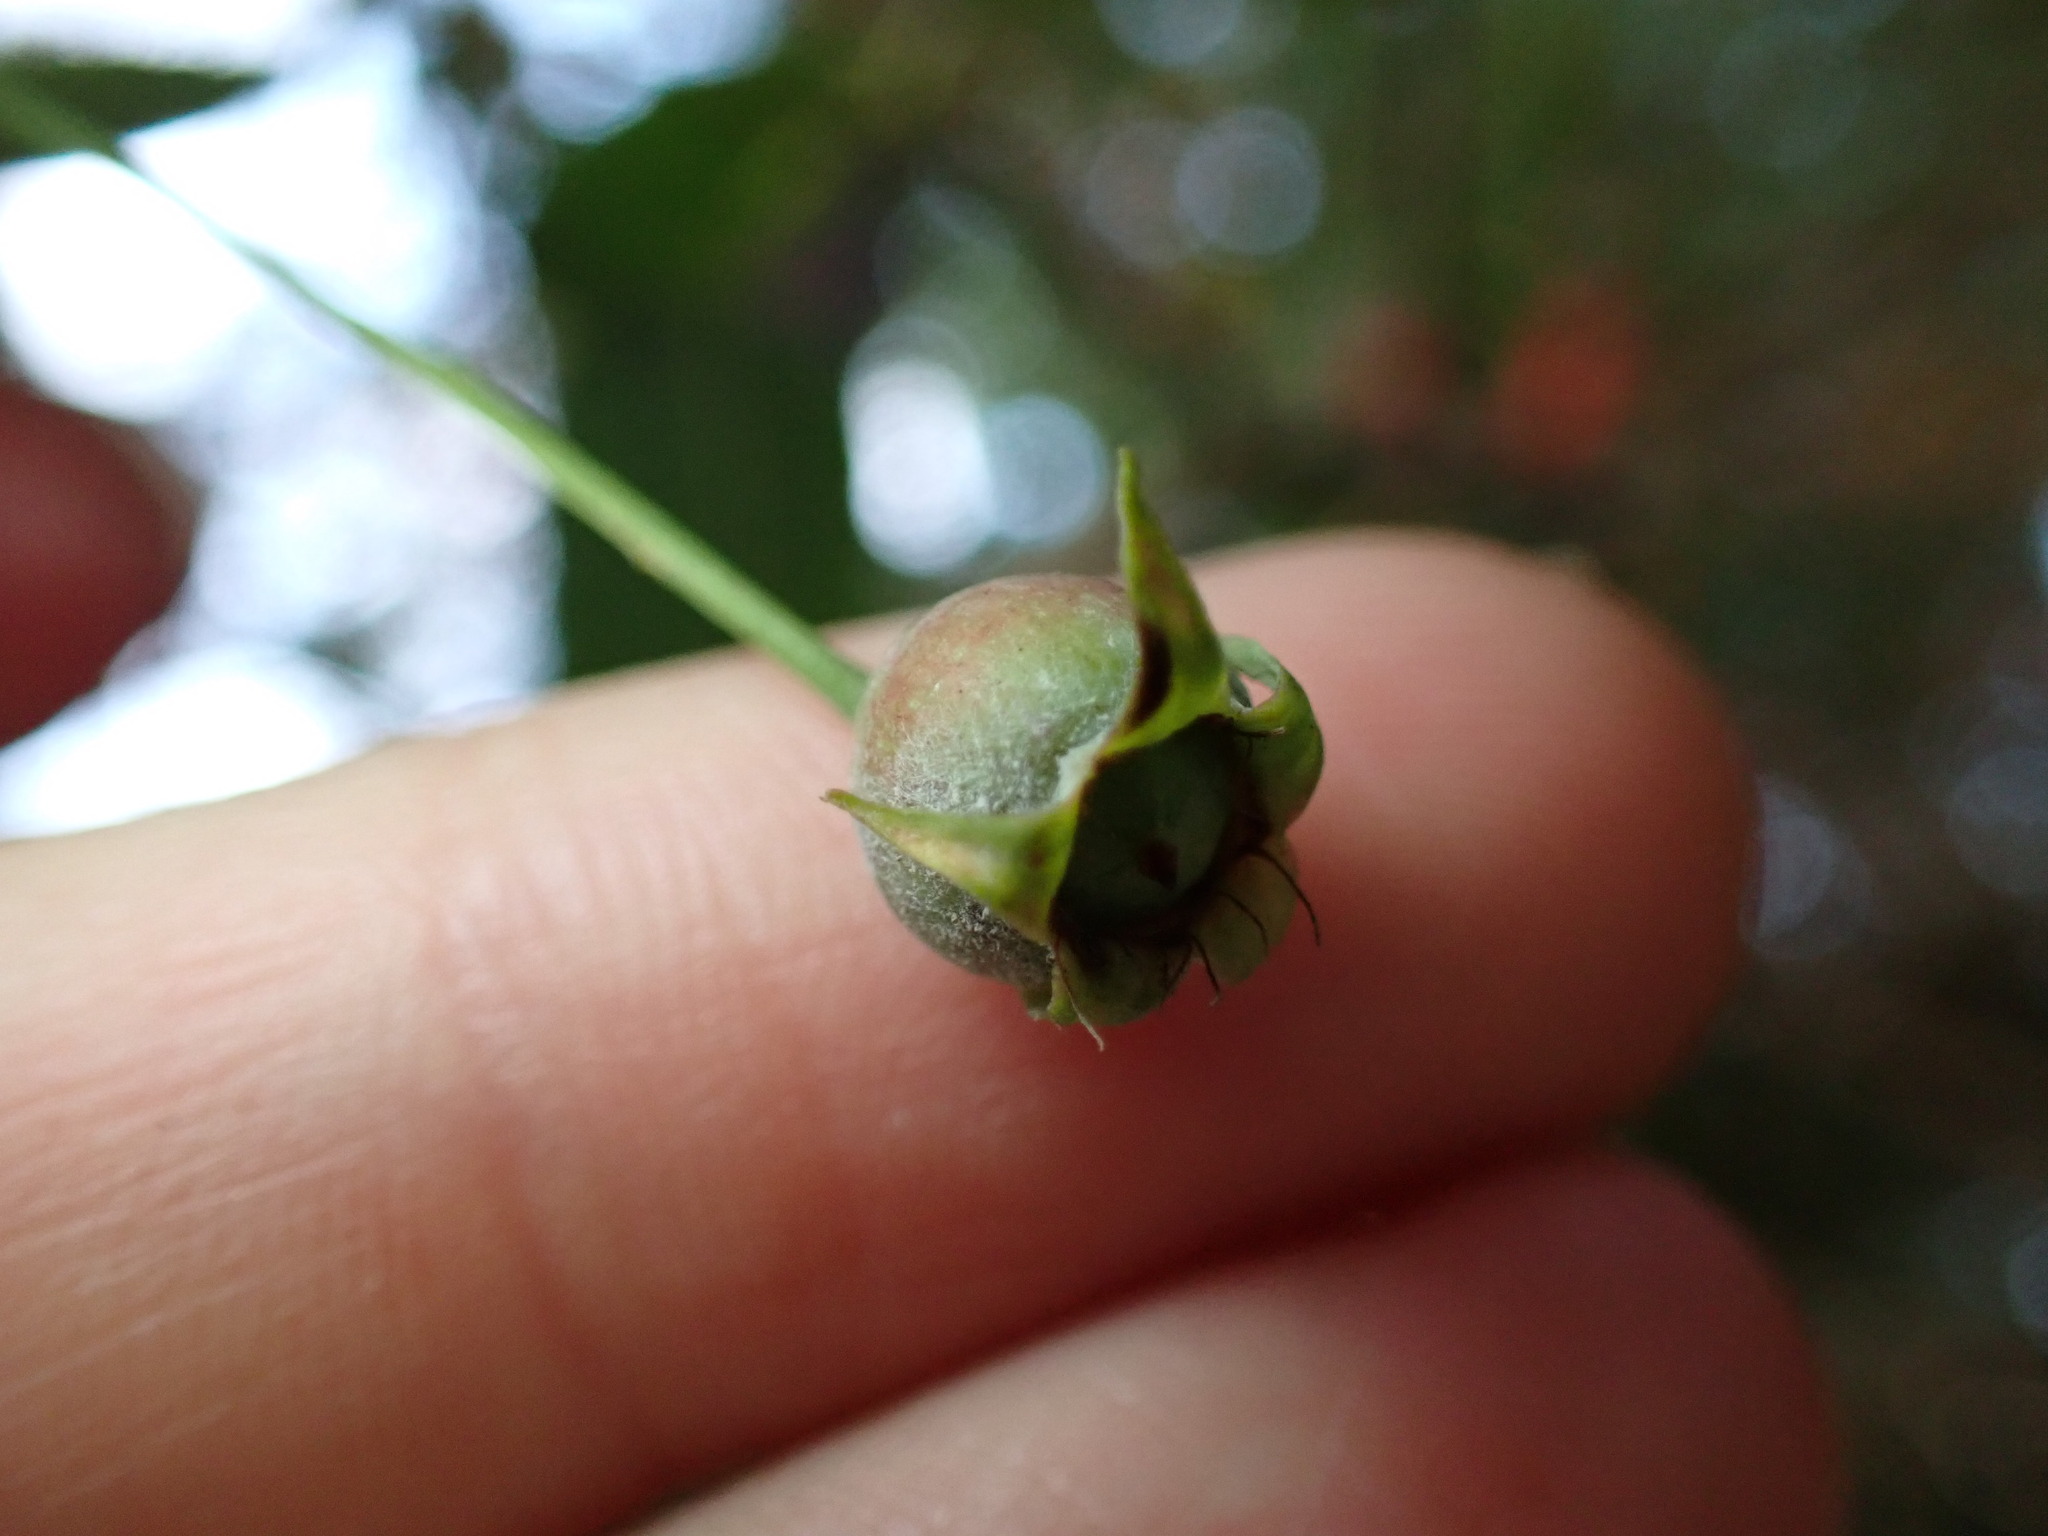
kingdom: Plantae
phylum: Tracheophyta
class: Magnoliopsida
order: Rosales
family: Rosaceae
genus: Amelanchier
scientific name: Amelanchier lamarckii
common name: Juneberry
